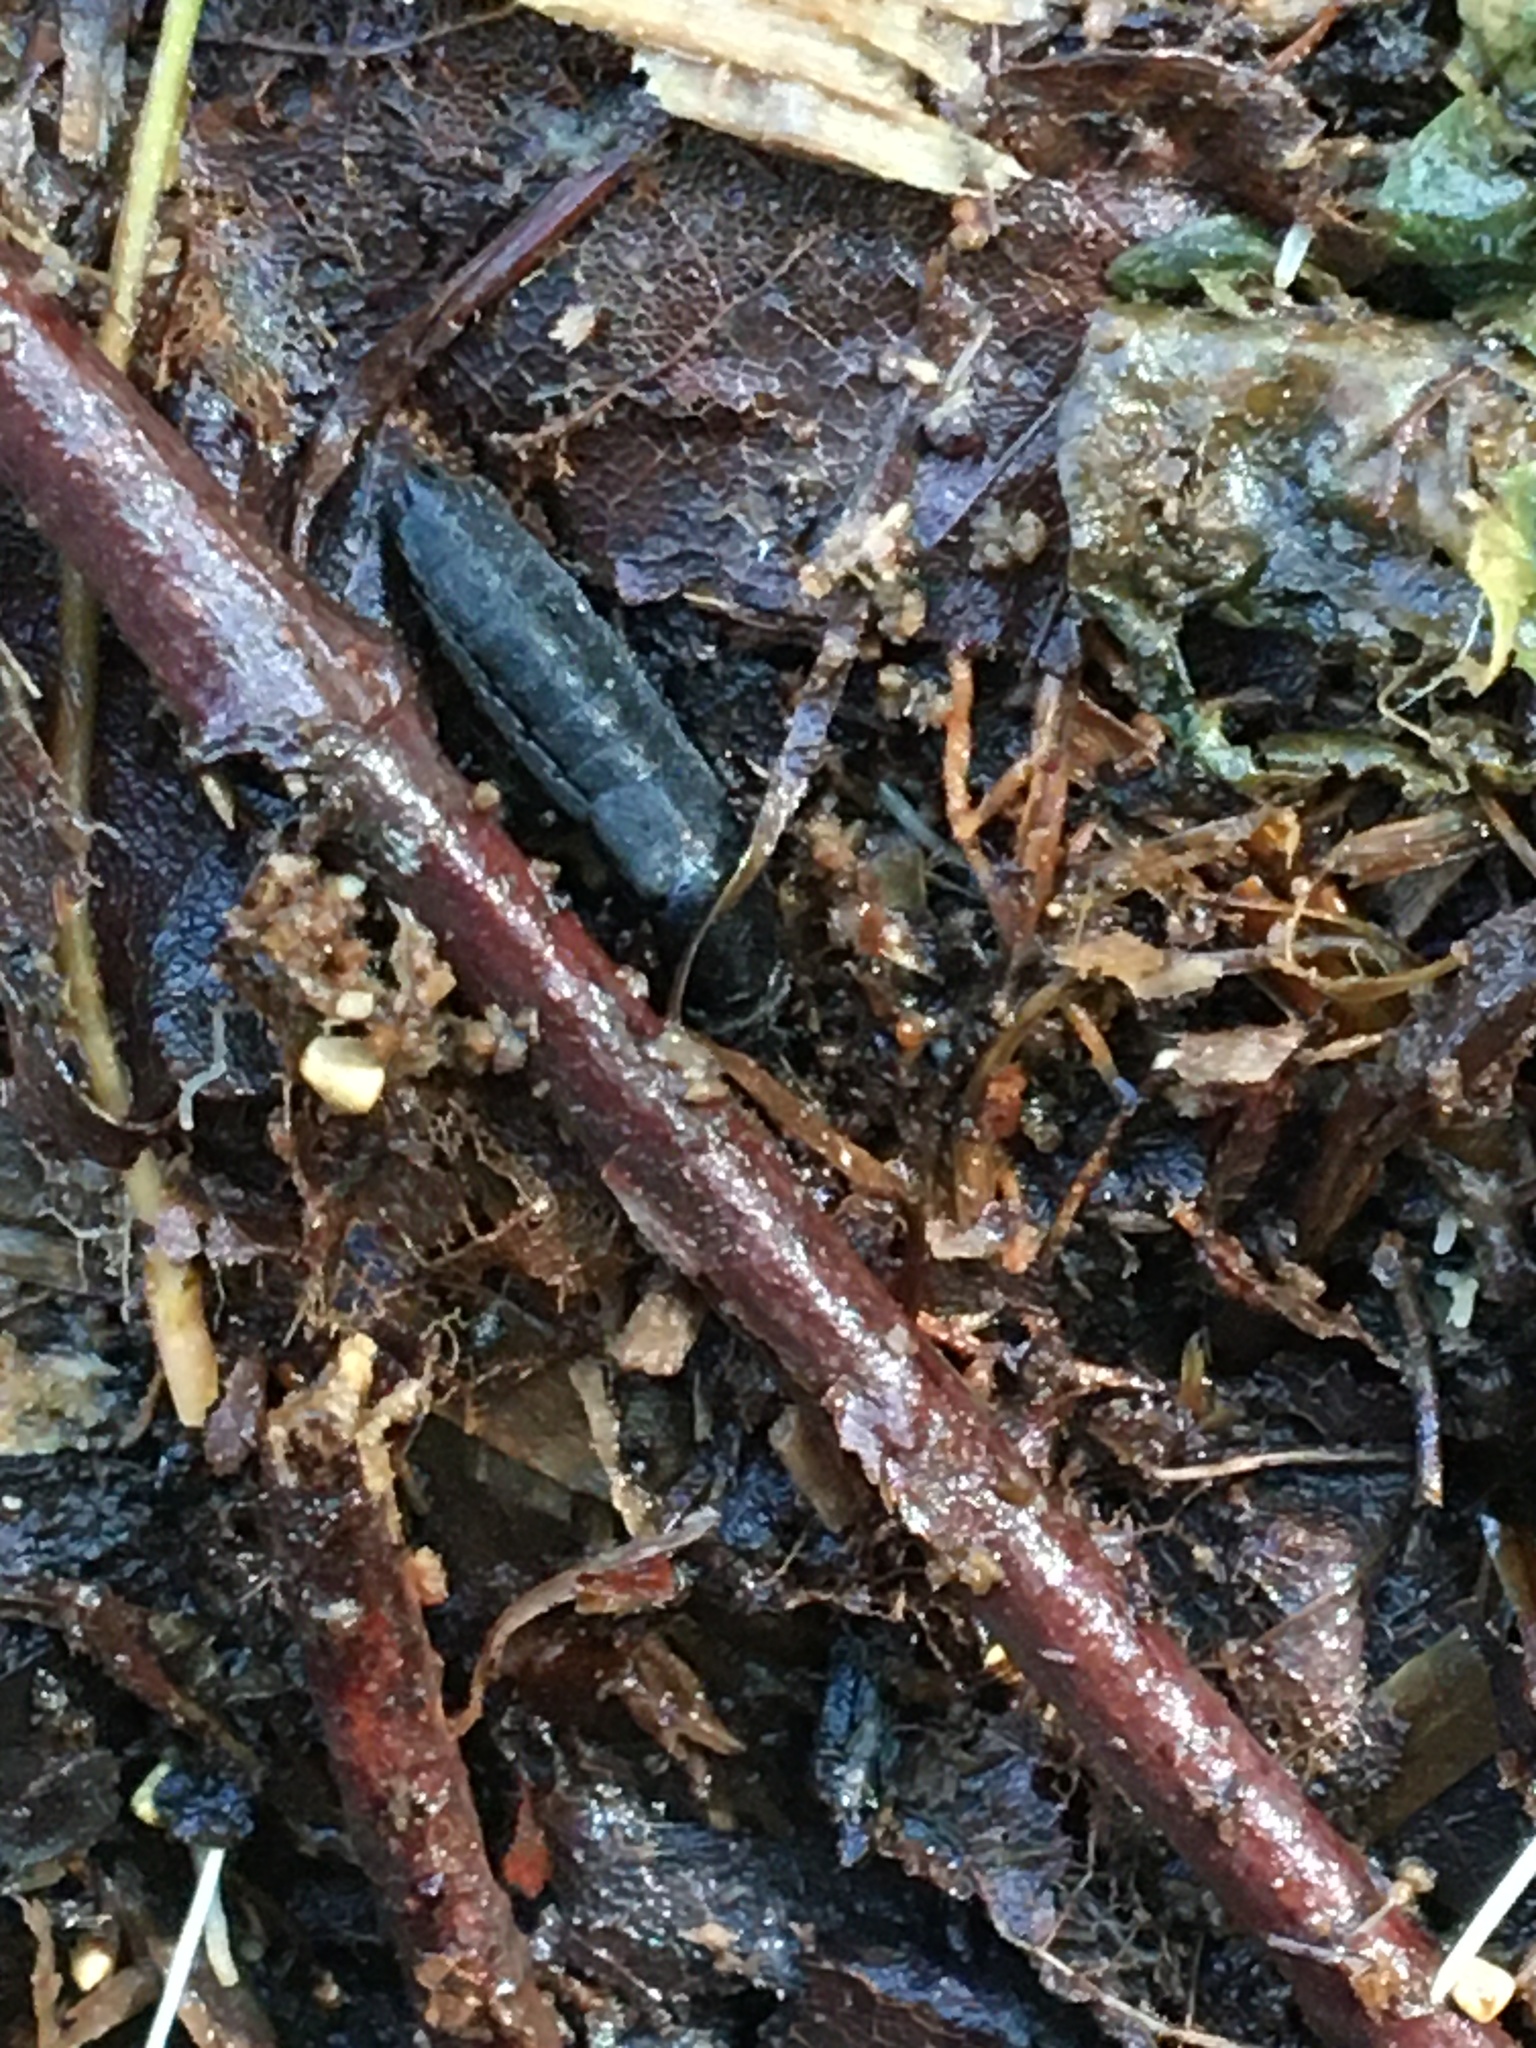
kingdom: Animalia
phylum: Arthropoda
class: Insecta
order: Coleoptera
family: Staphylinidae
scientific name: Staphylinidae
